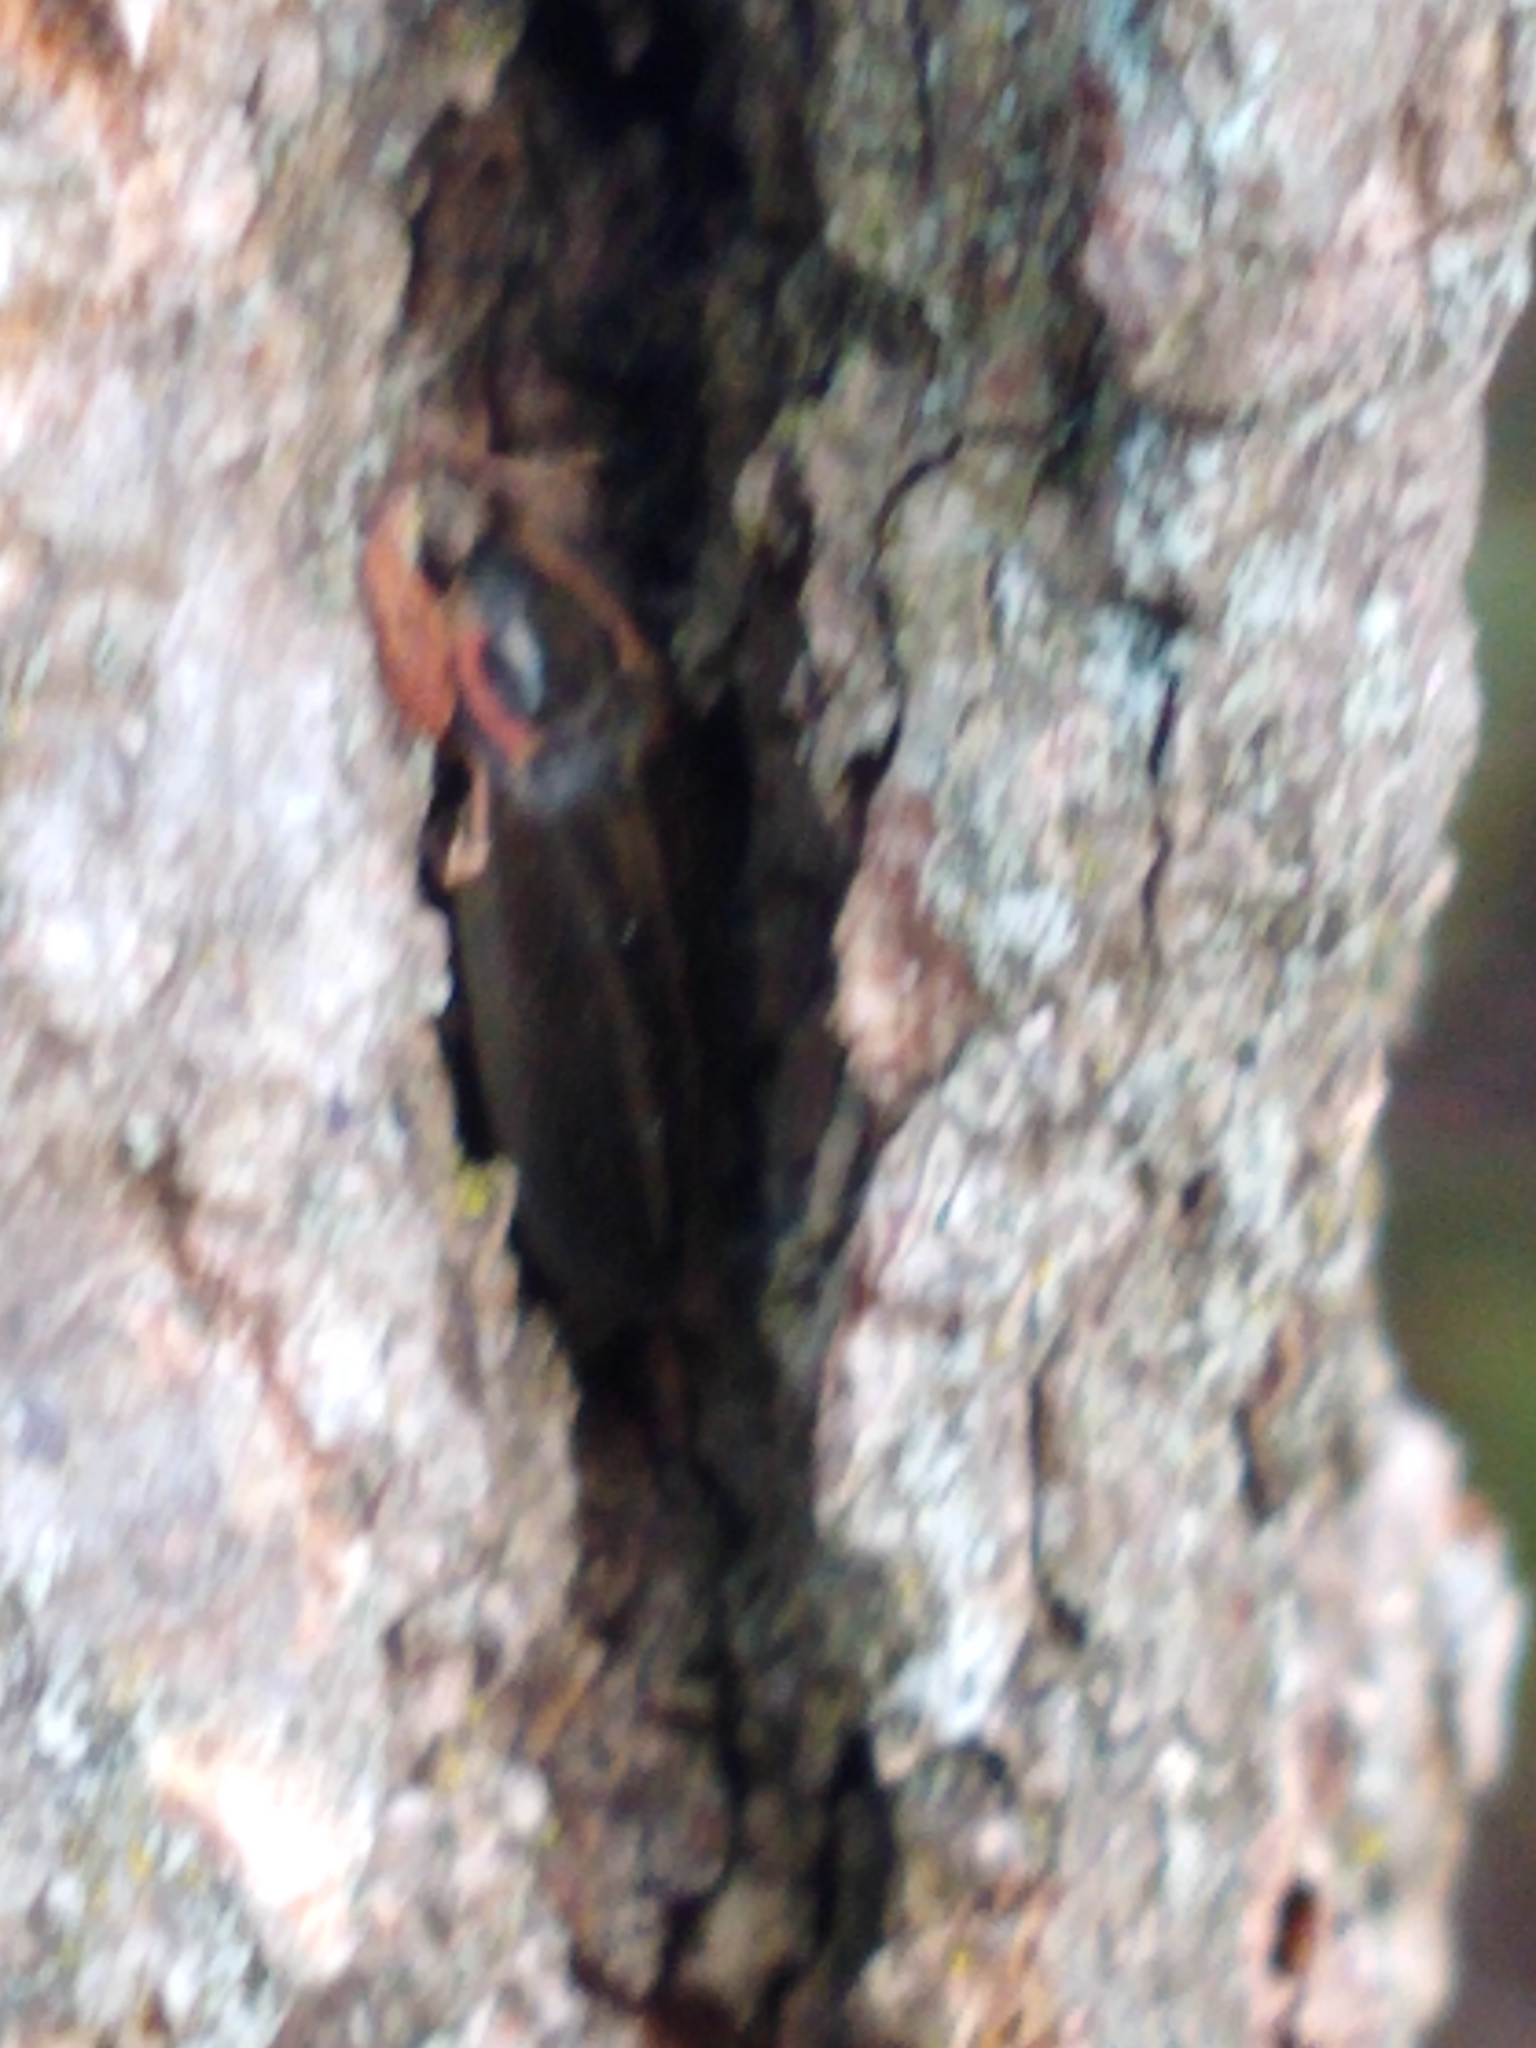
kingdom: Animalia
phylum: Arthropoda
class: Insecta
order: Coleoptera
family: Lampyridae
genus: Photinus
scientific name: Photinus corrusca
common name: Winter firefly
